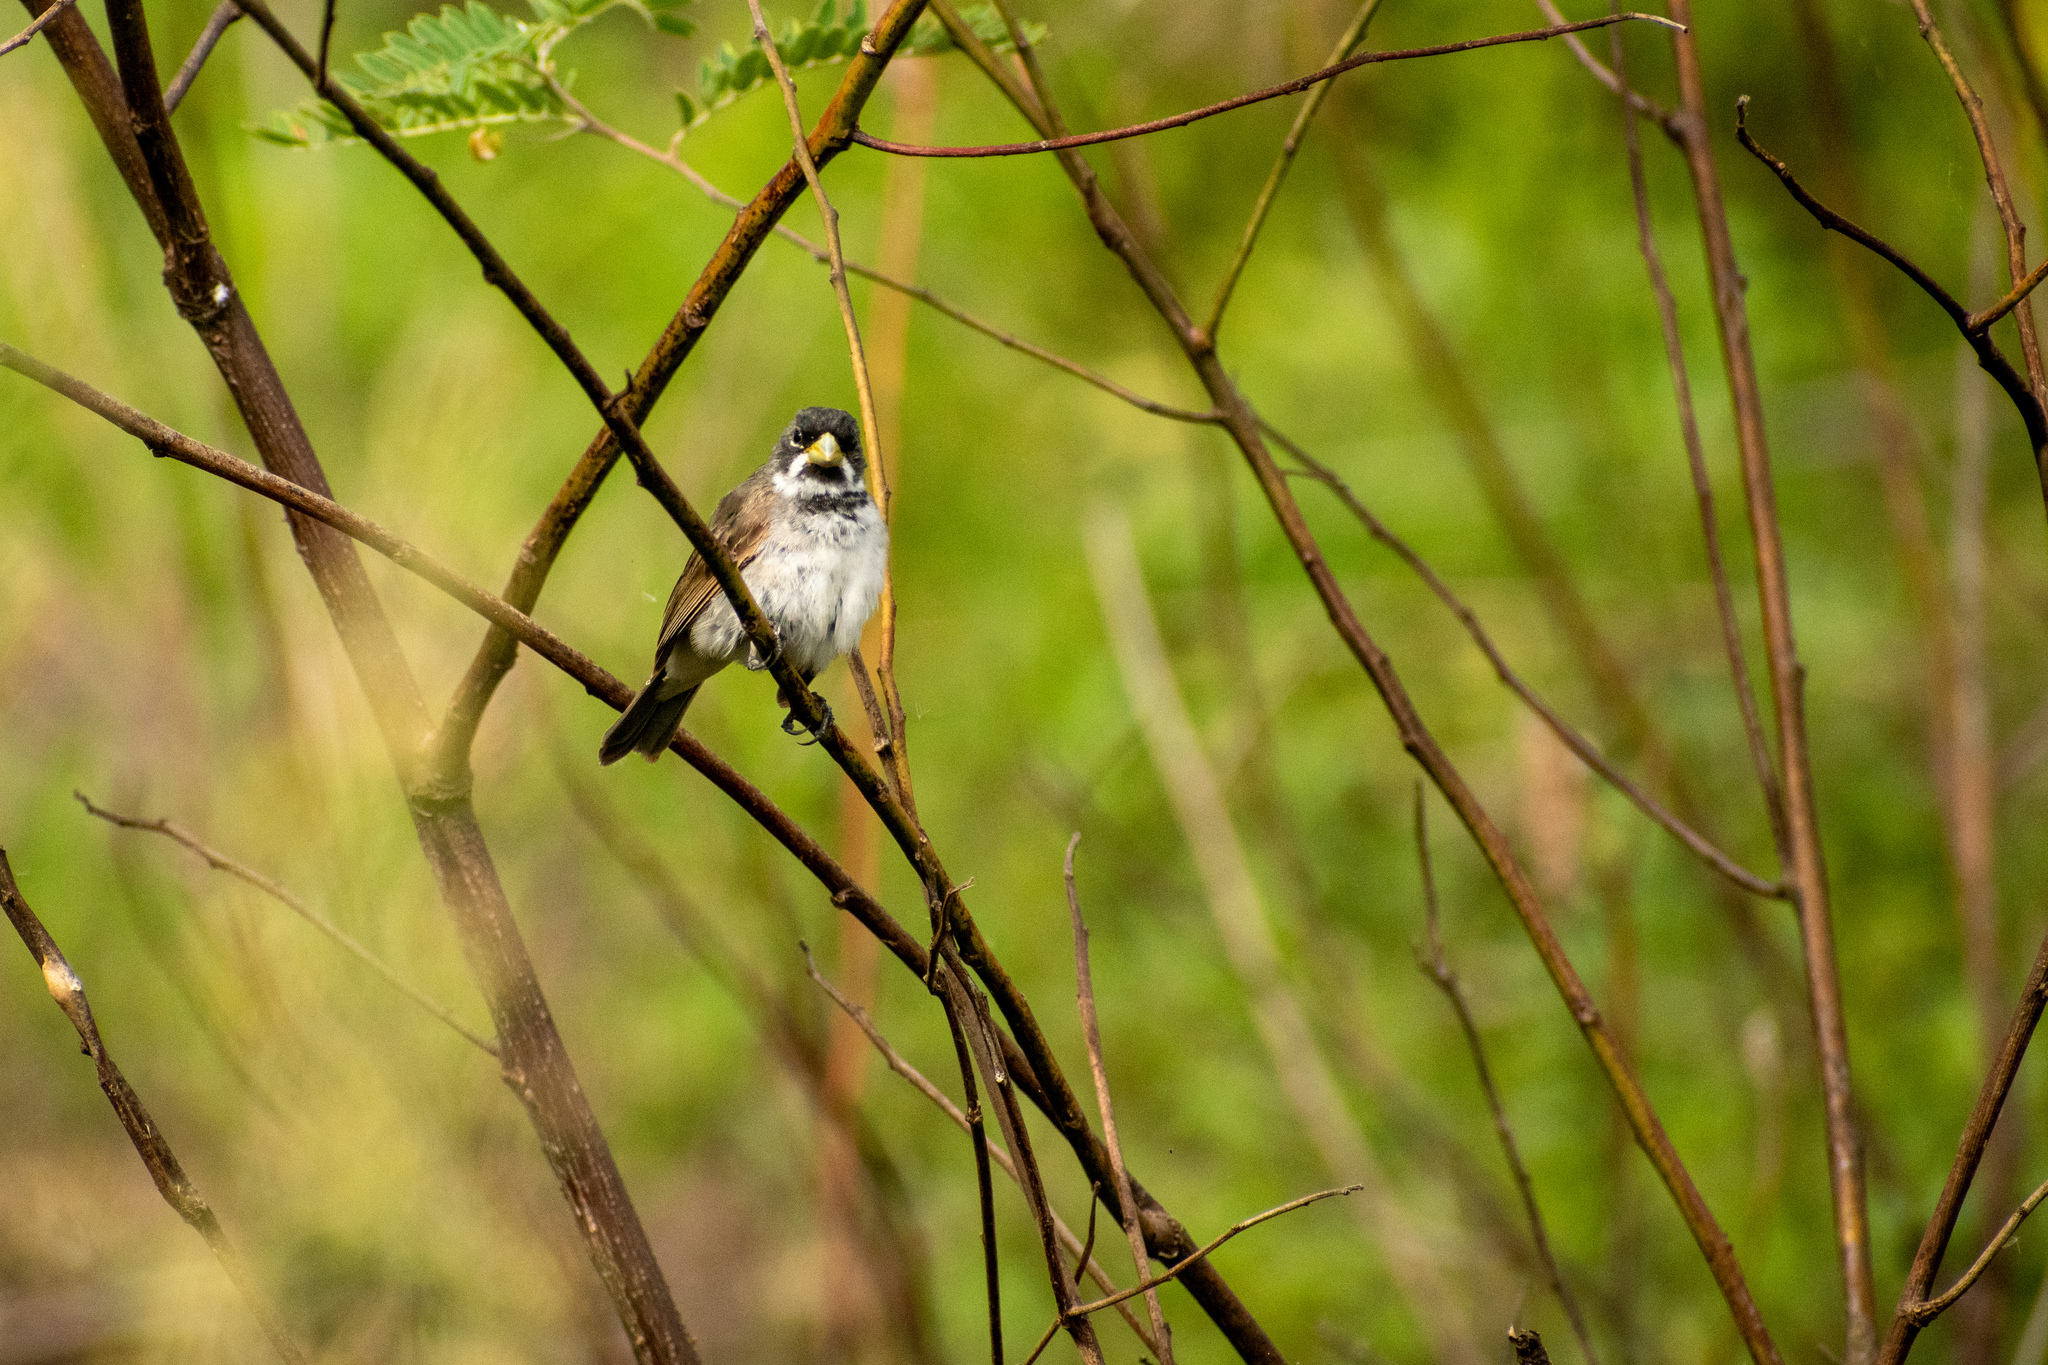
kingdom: Animalia
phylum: Chordata
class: Aves
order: Passeriformes
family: Thraupidae
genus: Sporophila
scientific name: Sporophila caerulescens
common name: Double-collared seedeater
